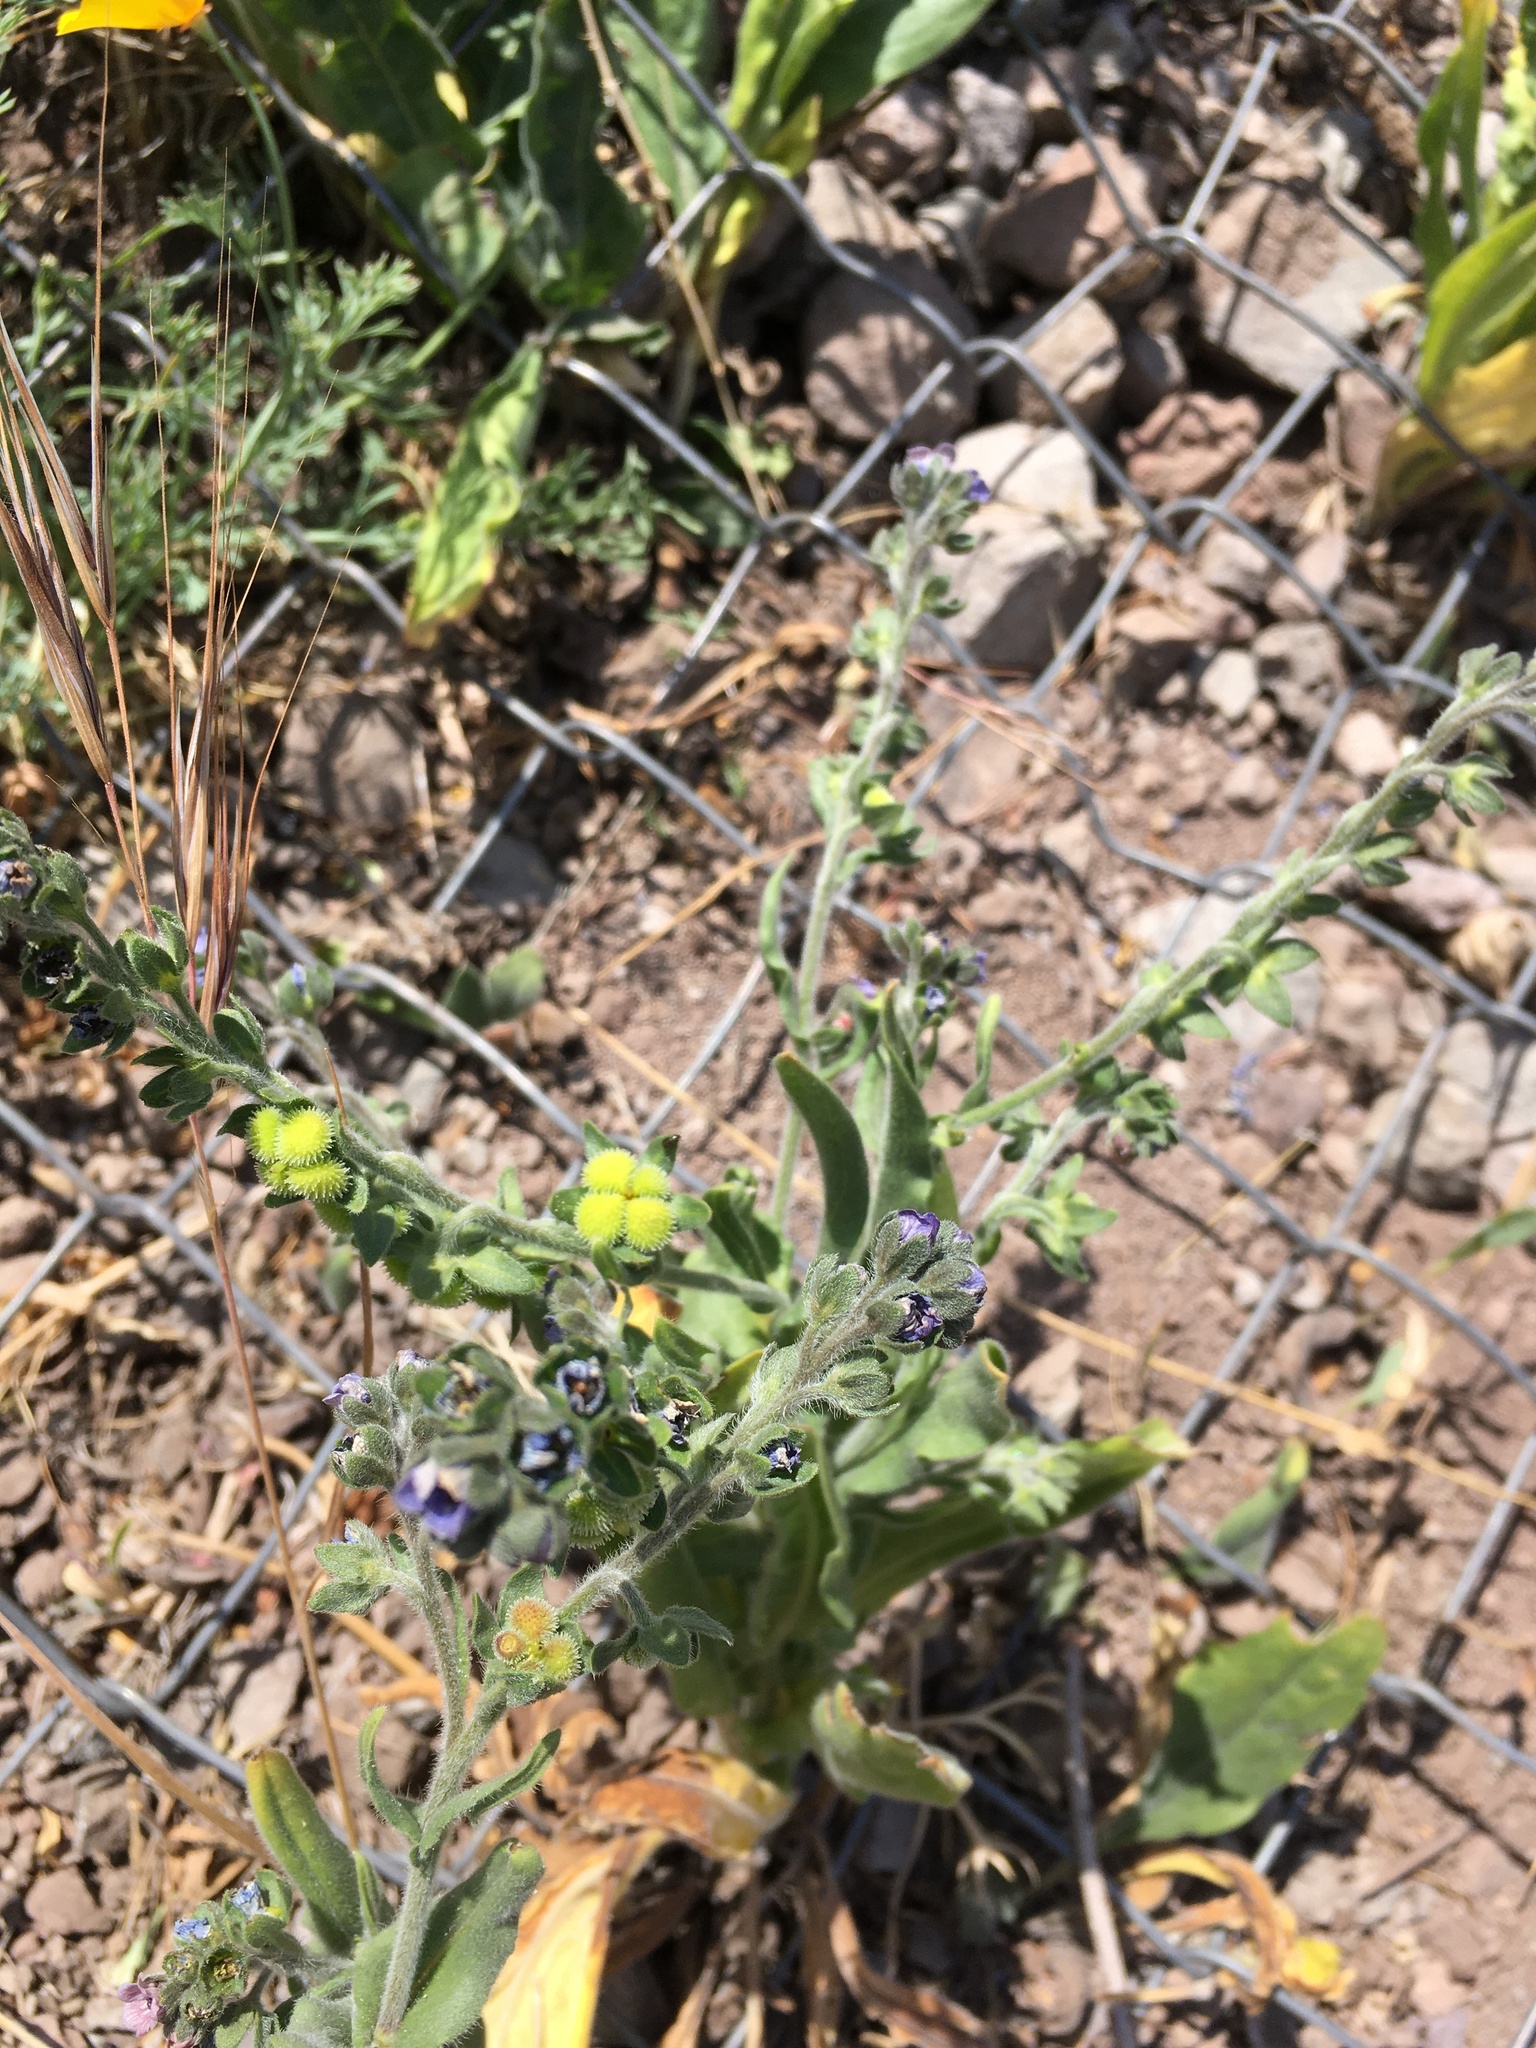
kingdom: Plantae
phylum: Tracheophyta
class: Magnoliopsida
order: Boraginales
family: Boraginaceae
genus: Cynoglossum
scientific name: Cynoglossum creticum
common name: Blue hound's tongue
